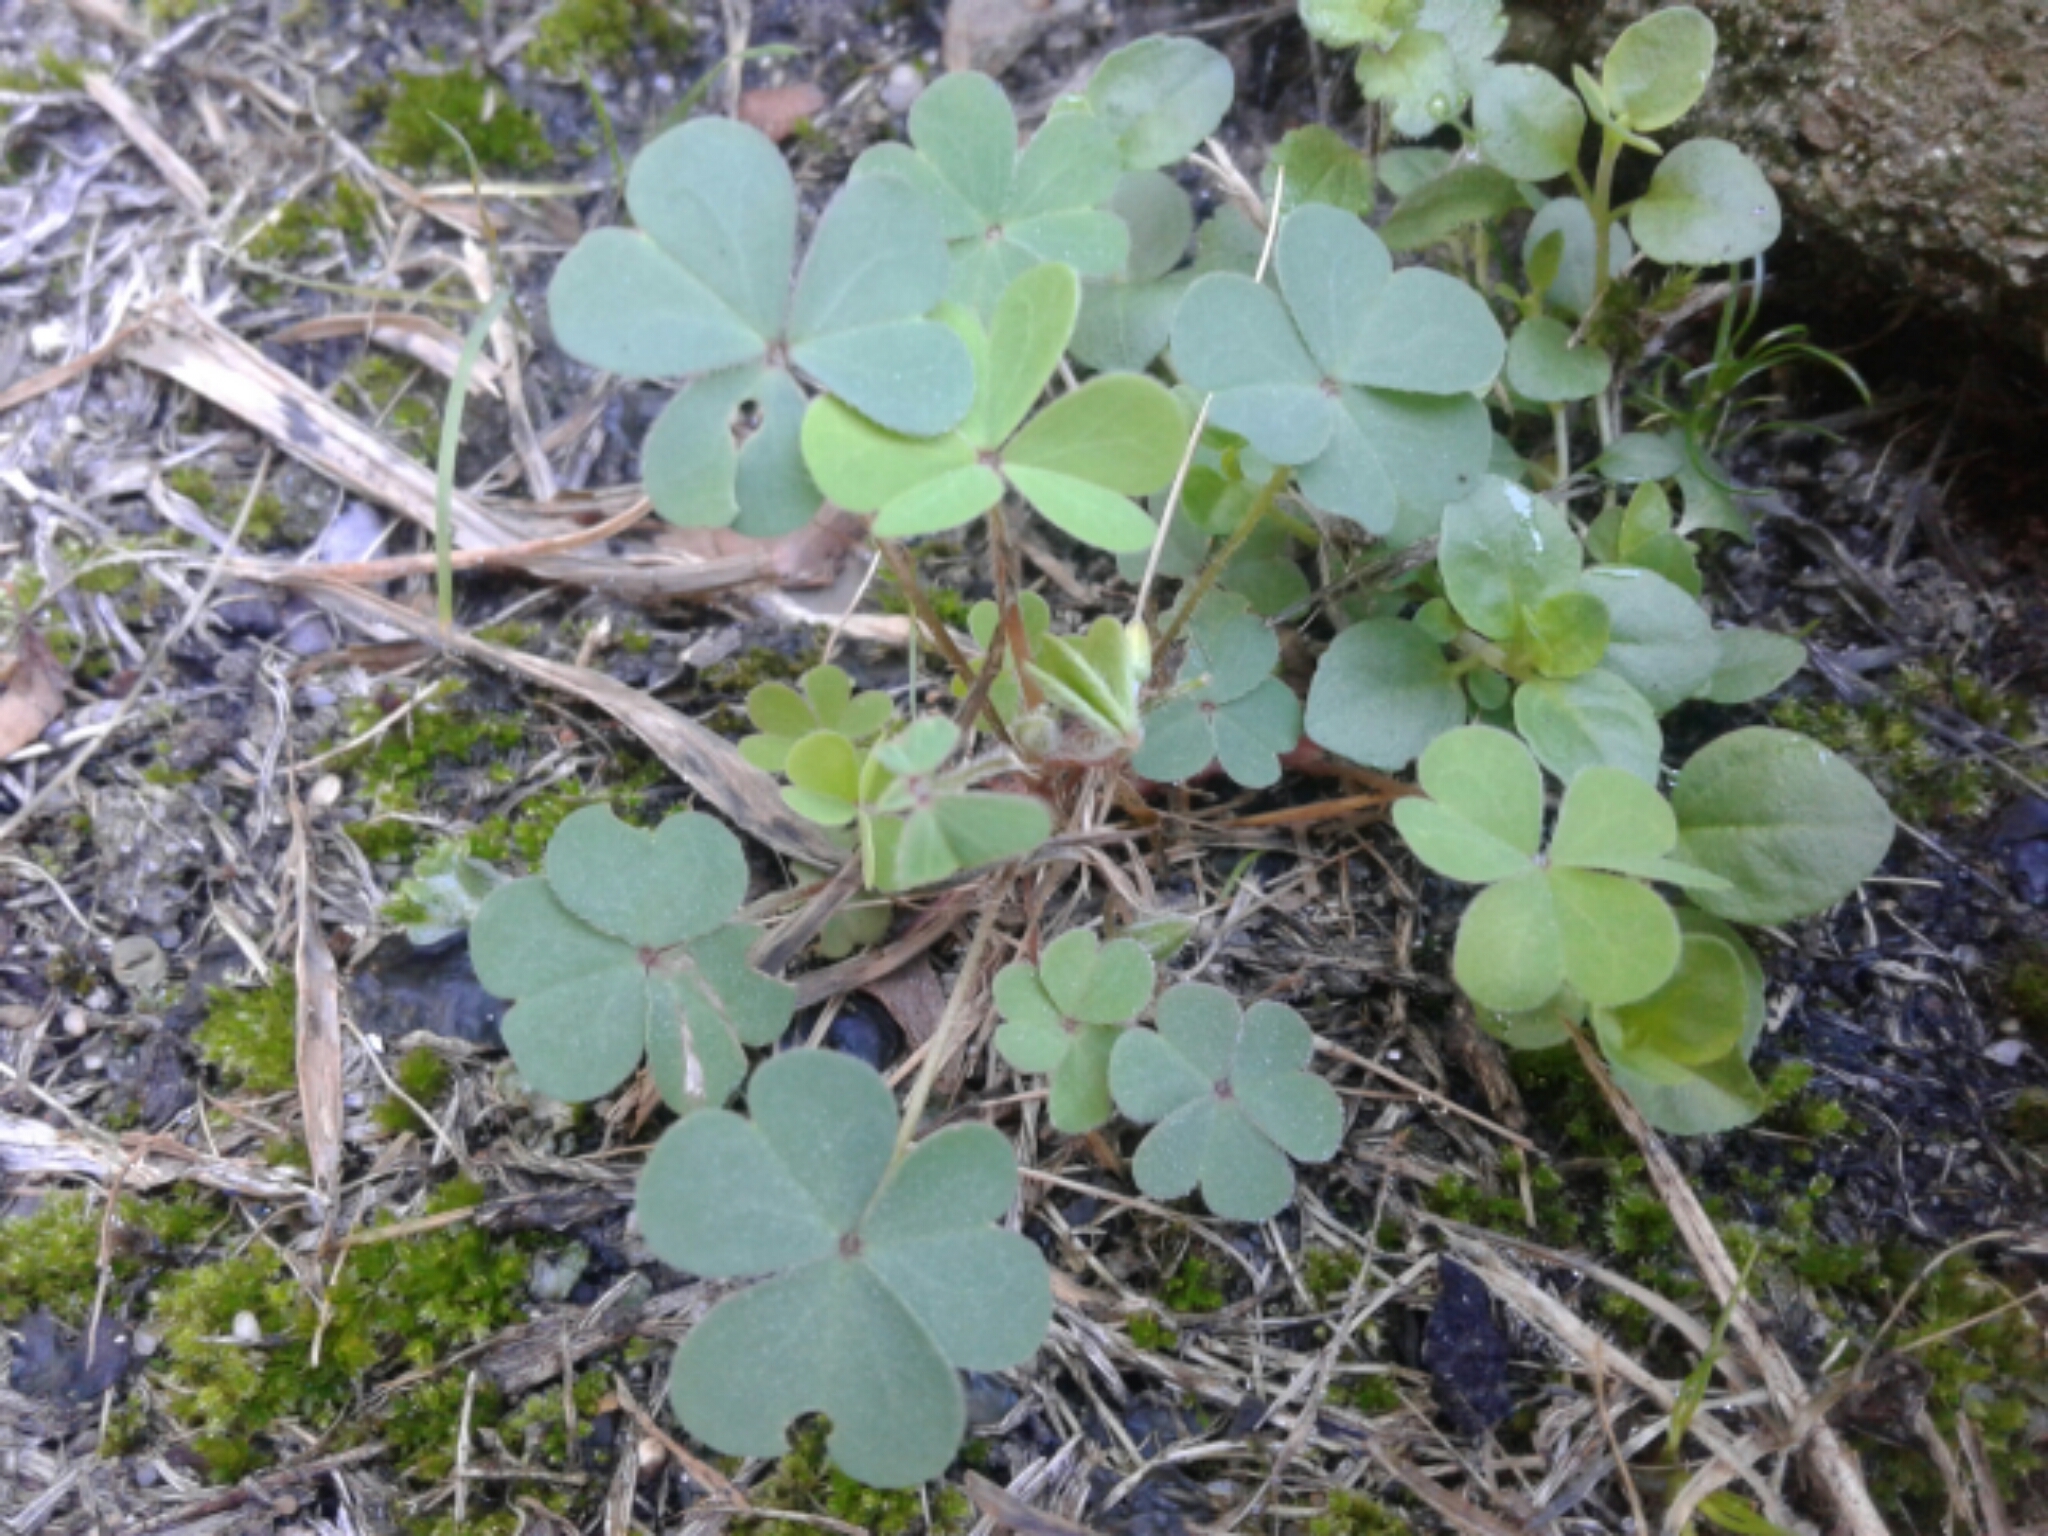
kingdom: Plantae
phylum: Tracheophyta
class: Magnoliopsida
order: Oxalidales
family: Oxalidaceae
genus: Oxalis
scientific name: Oxalis
